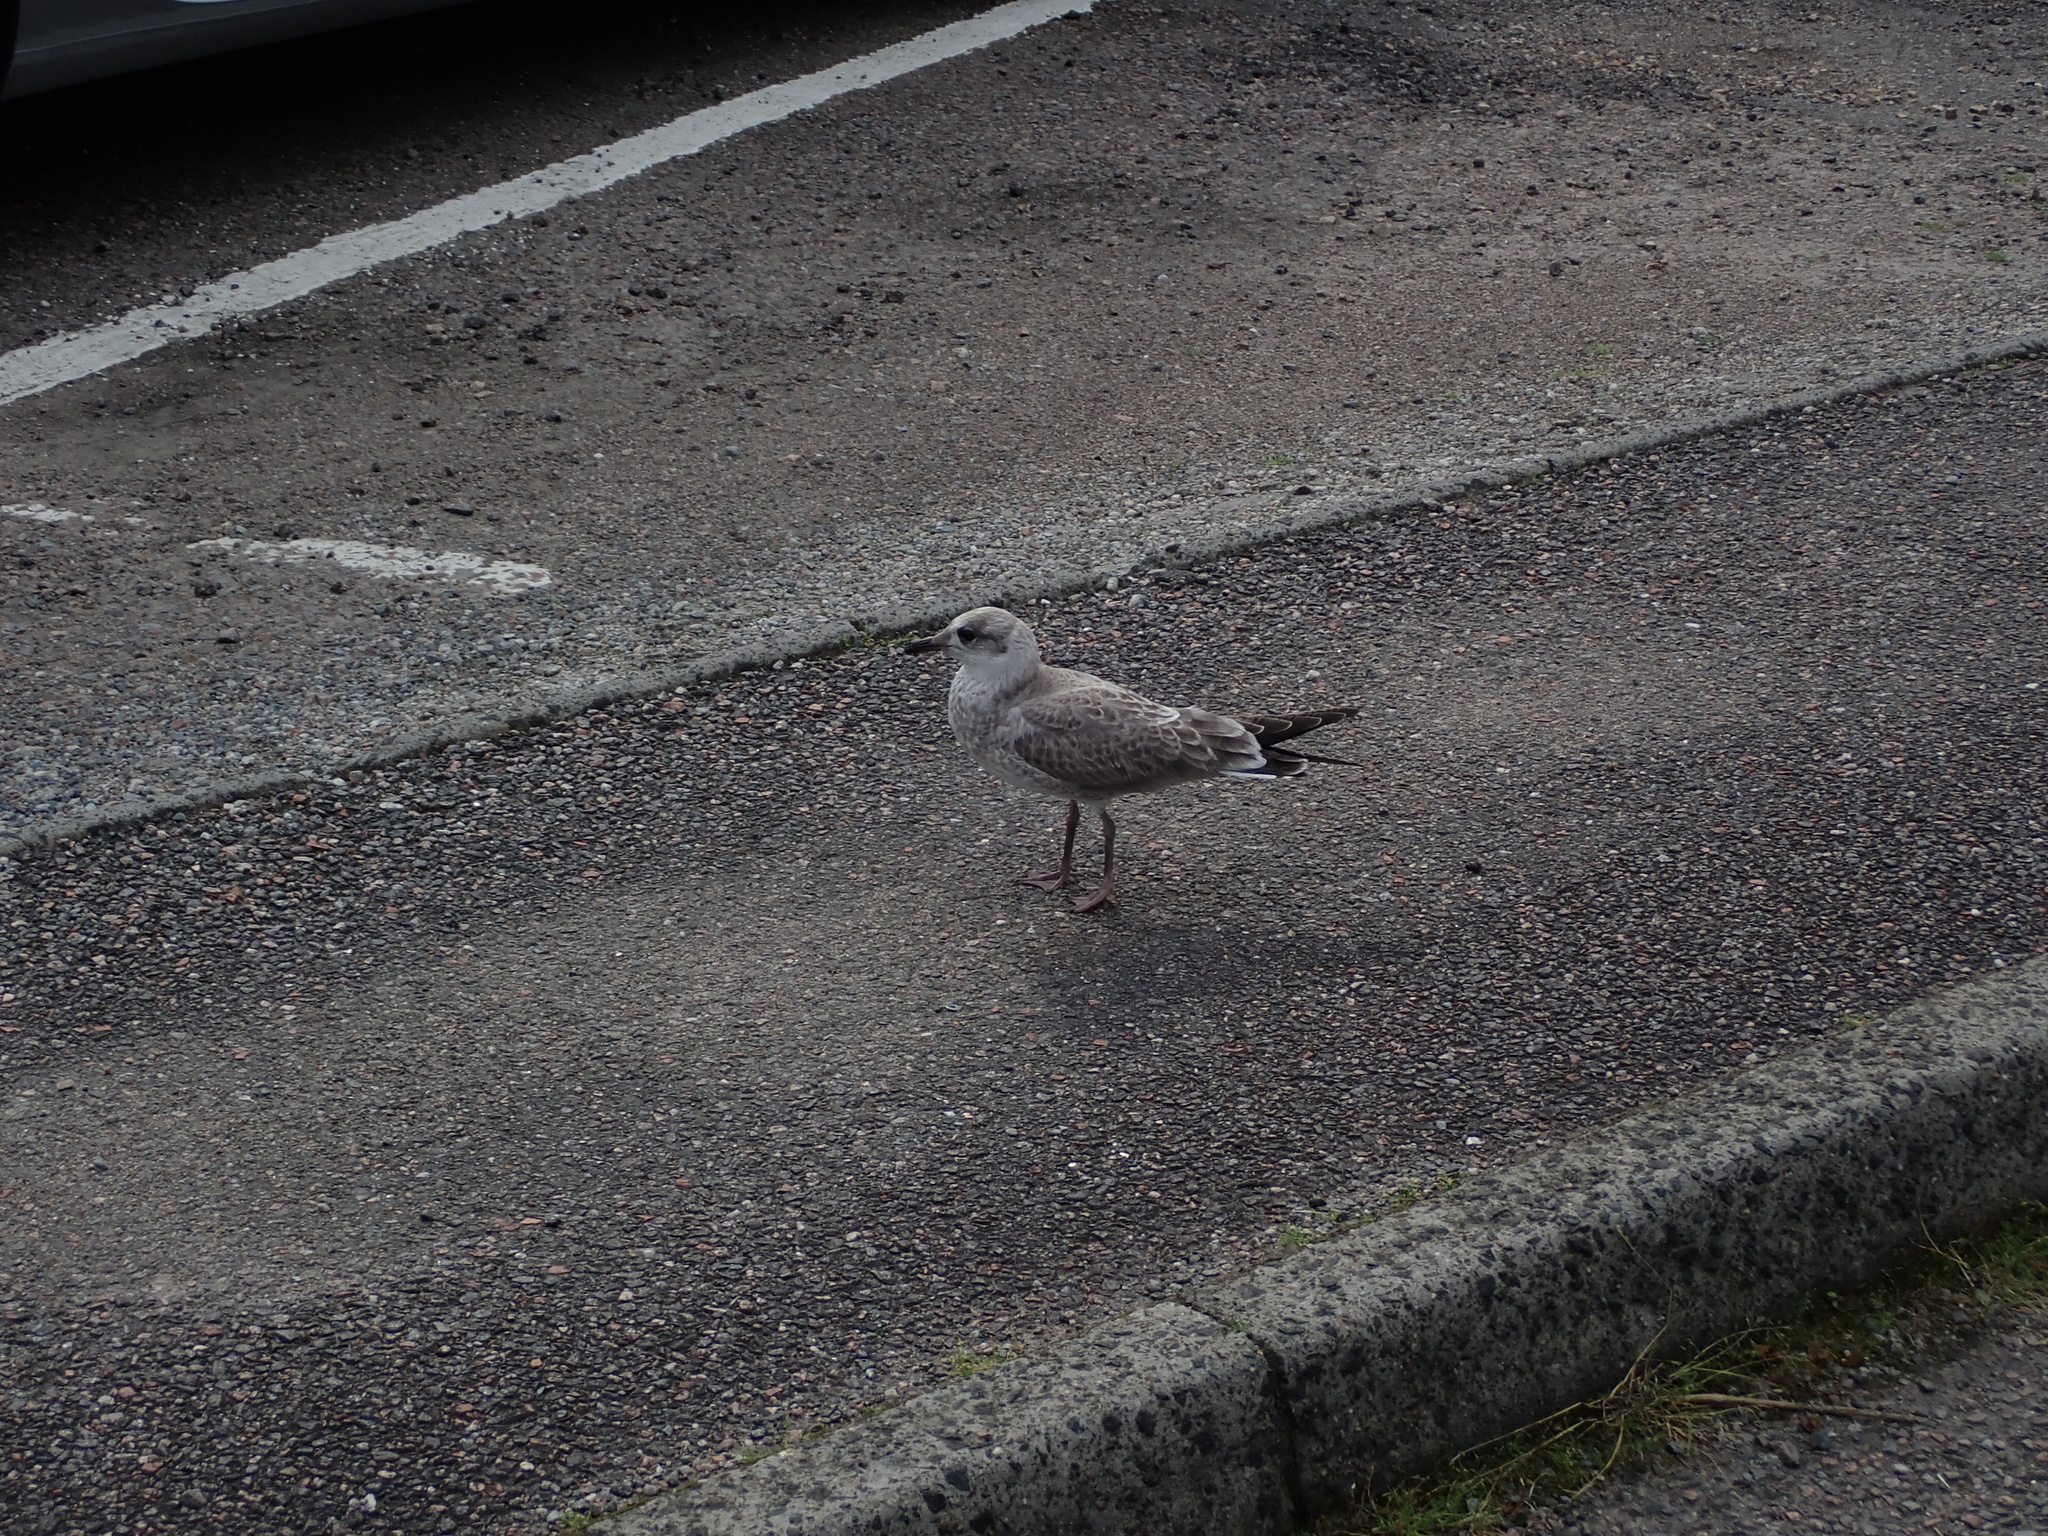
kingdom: Animalia
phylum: Chordata
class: Aves
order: Charadriiformes
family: Laridae
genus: Larus
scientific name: Larus canus
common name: Mew gull
